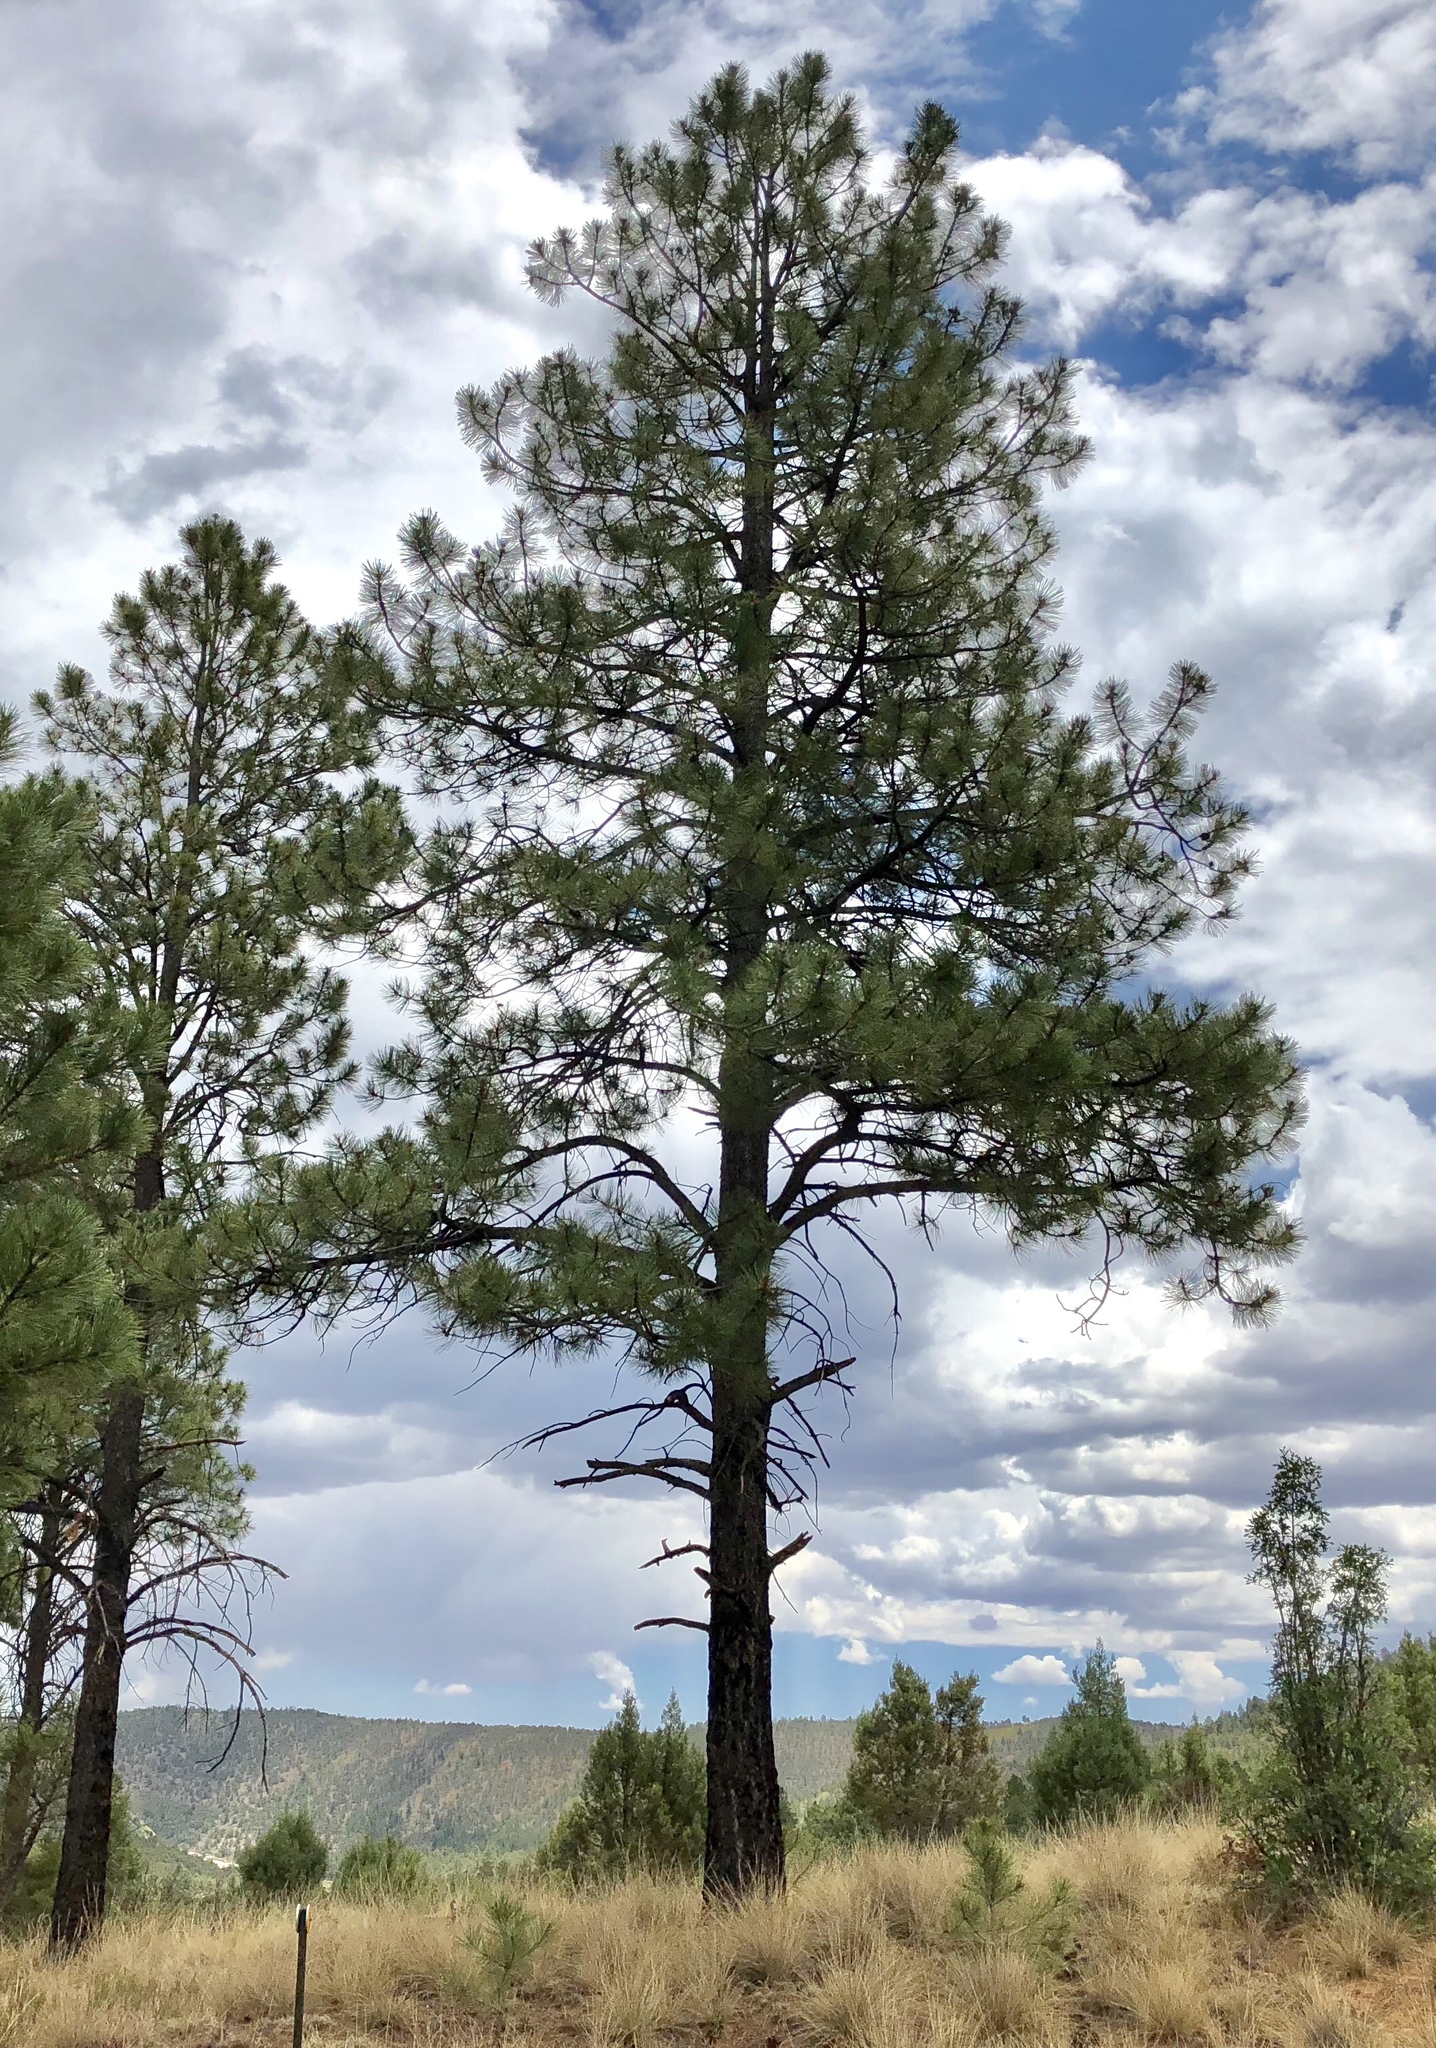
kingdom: Plantae
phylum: Tracheophyta
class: Pinopsida
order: Pinales
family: Pinaceae
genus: Pinus
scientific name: Pinus ponderosa
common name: Western yellow-pine
